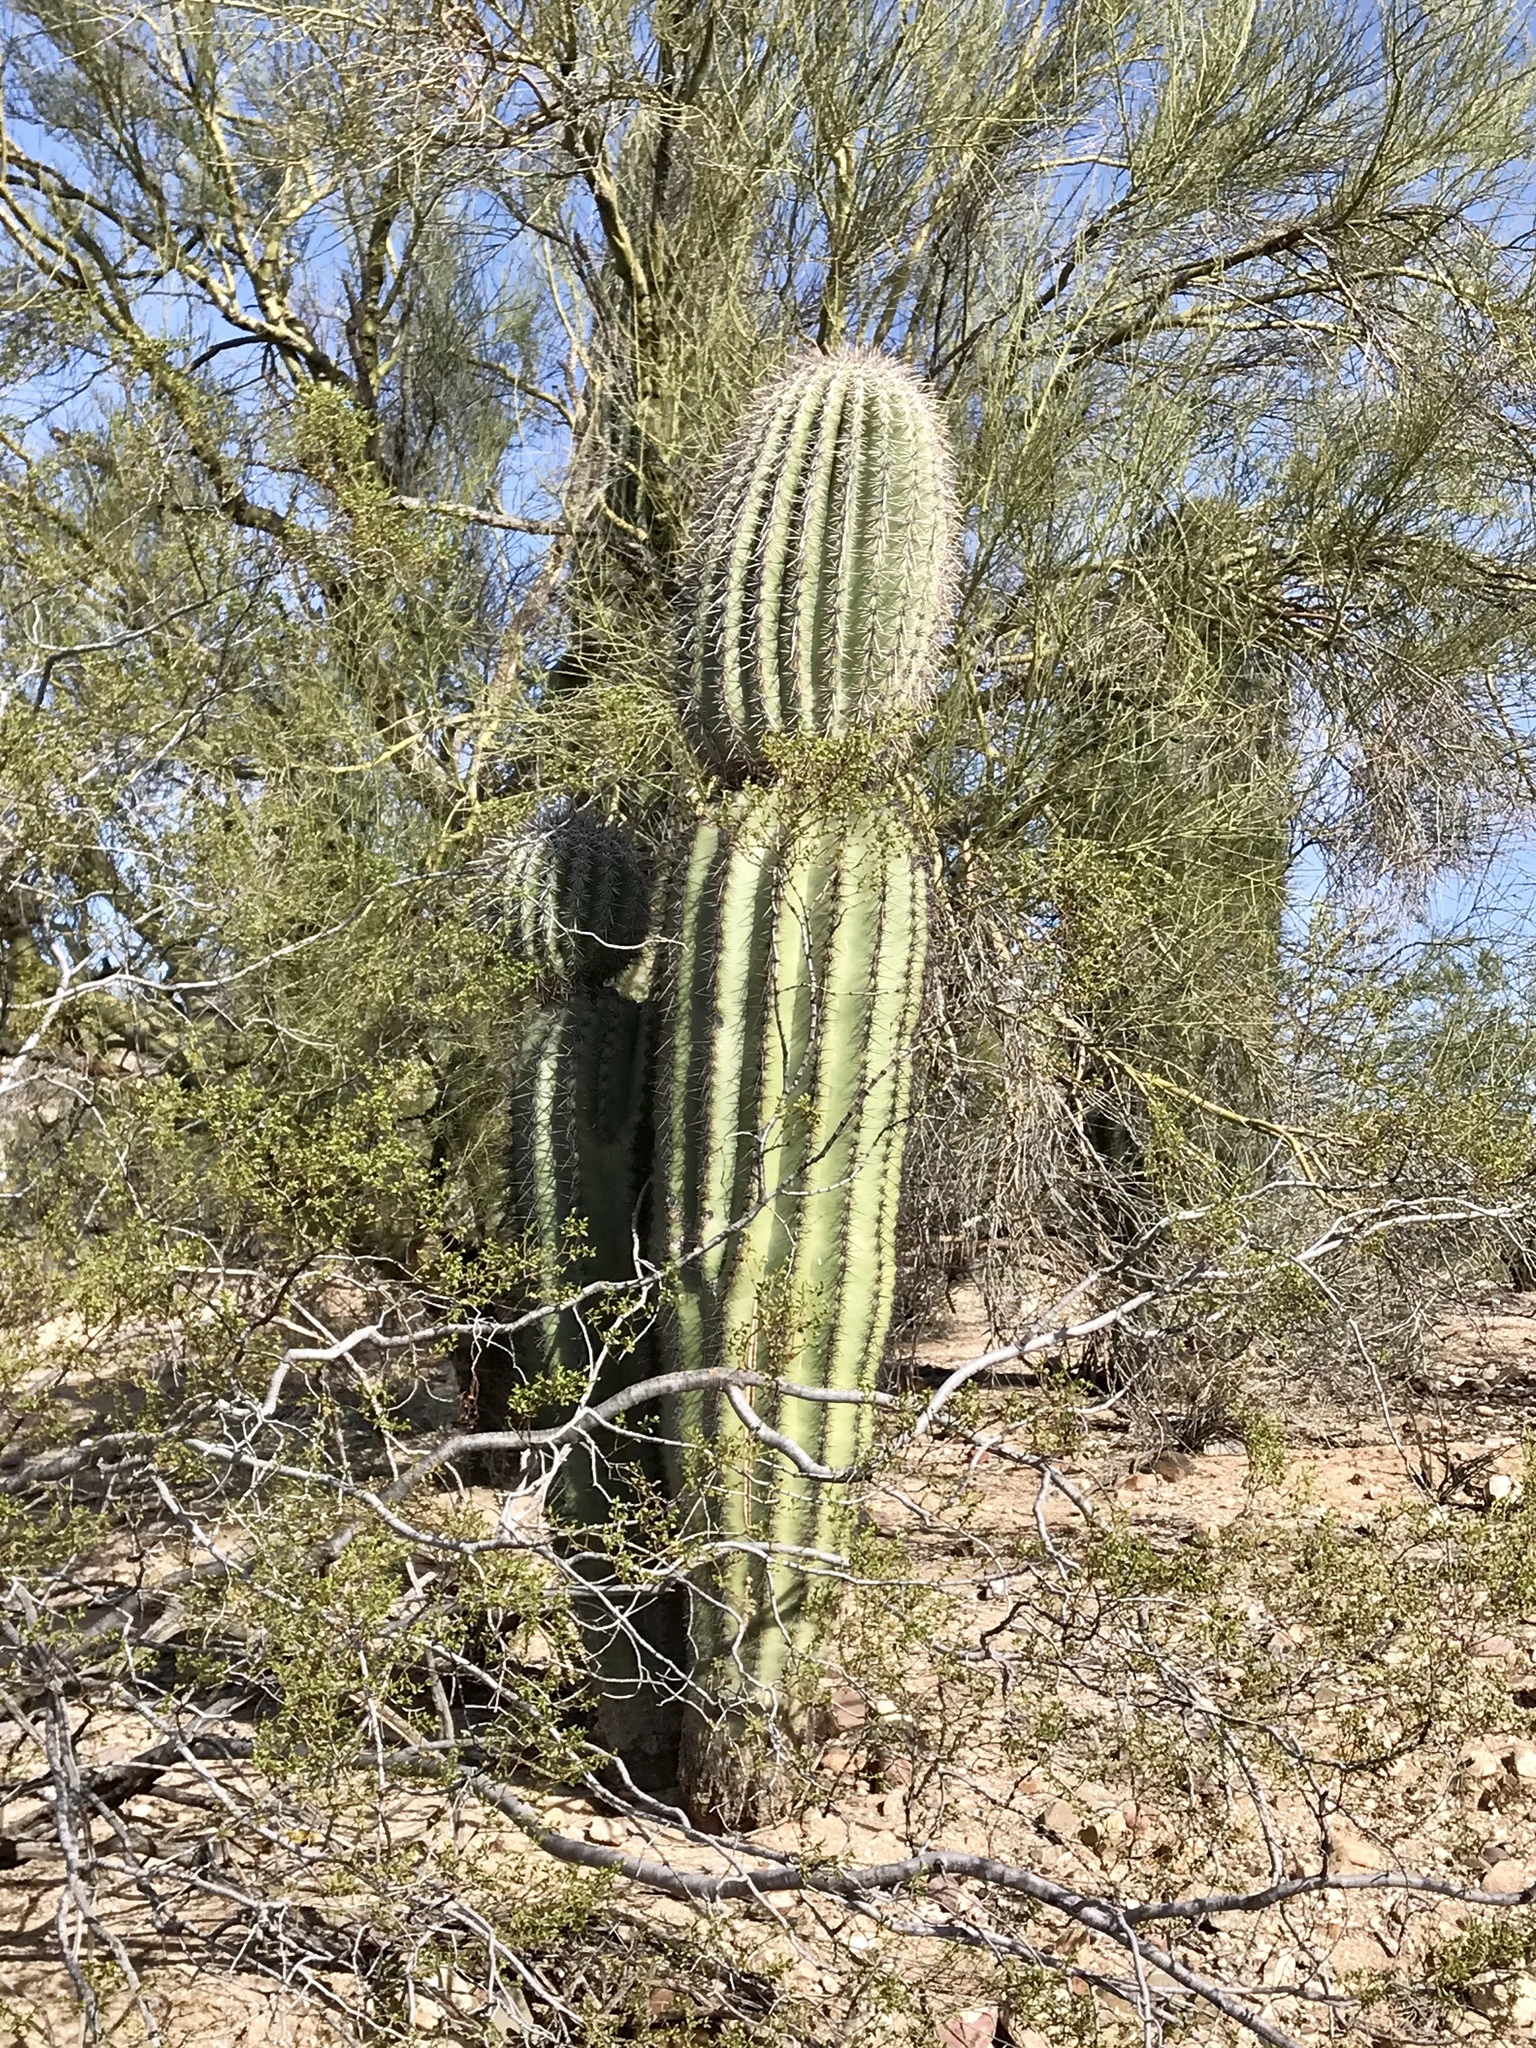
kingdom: Plantae
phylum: Tracheophyta
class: Magnoliopsida
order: Caryophyllales
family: Cactaceae
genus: Carnegiea
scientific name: Carnegiea gigantea
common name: Saguaro
